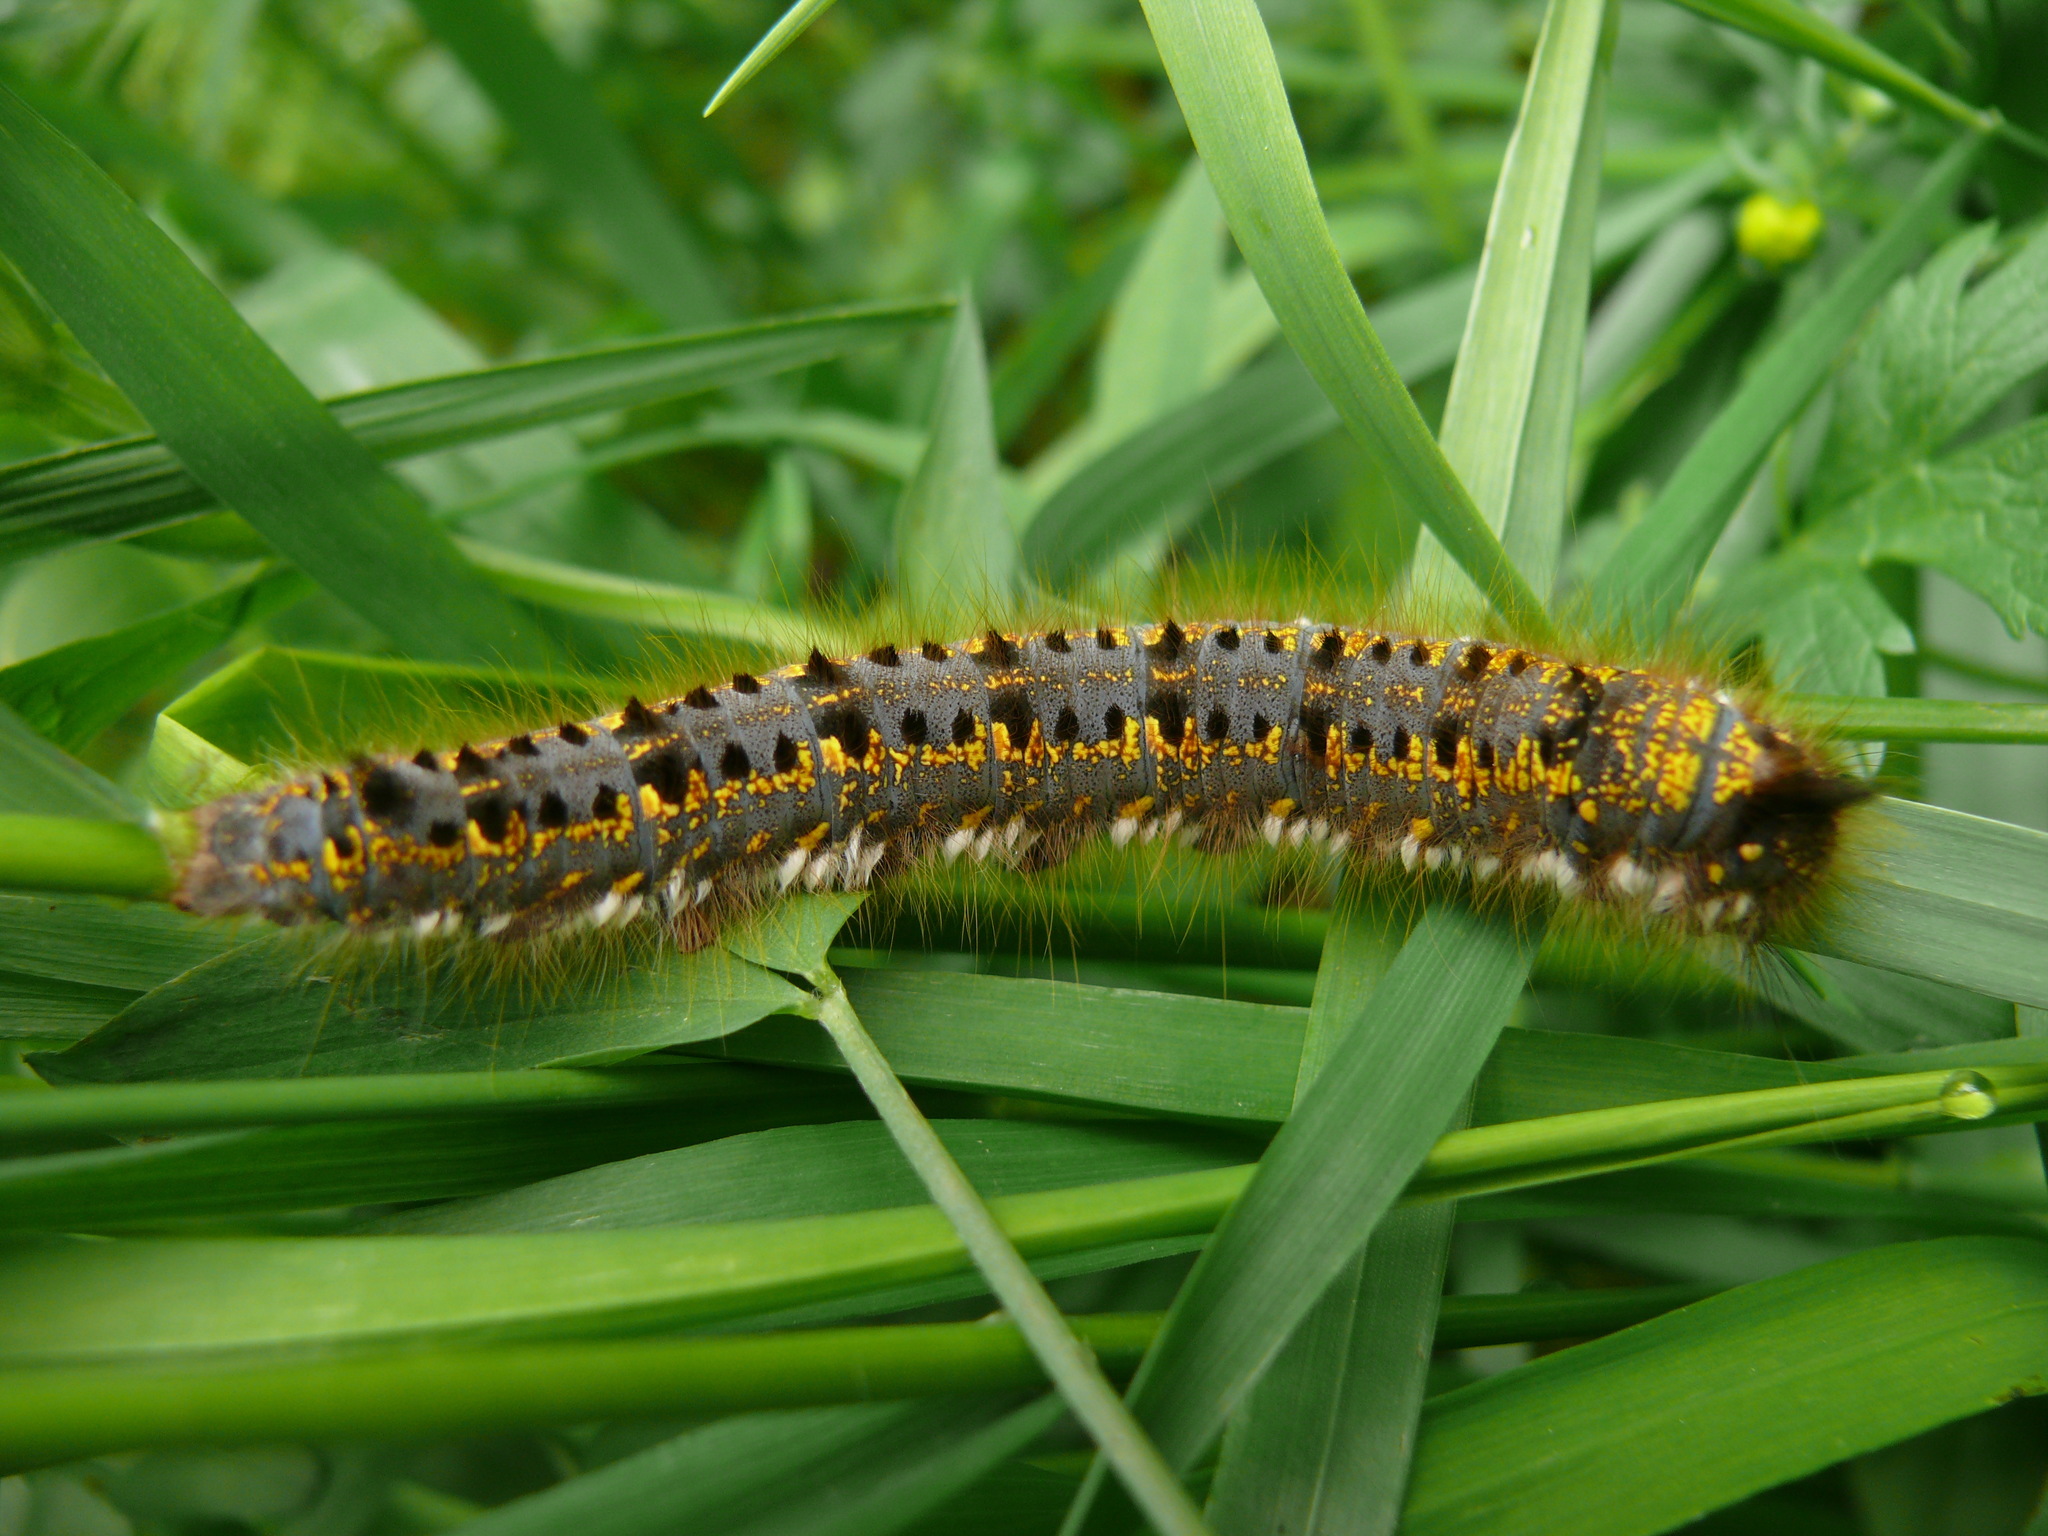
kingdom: Animalia
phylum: Arthropoda
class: Insecta
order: Lepidoptera
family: Lasiocampidae
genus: Euthrix
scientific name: Euthrix potatoria
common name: Drinker
